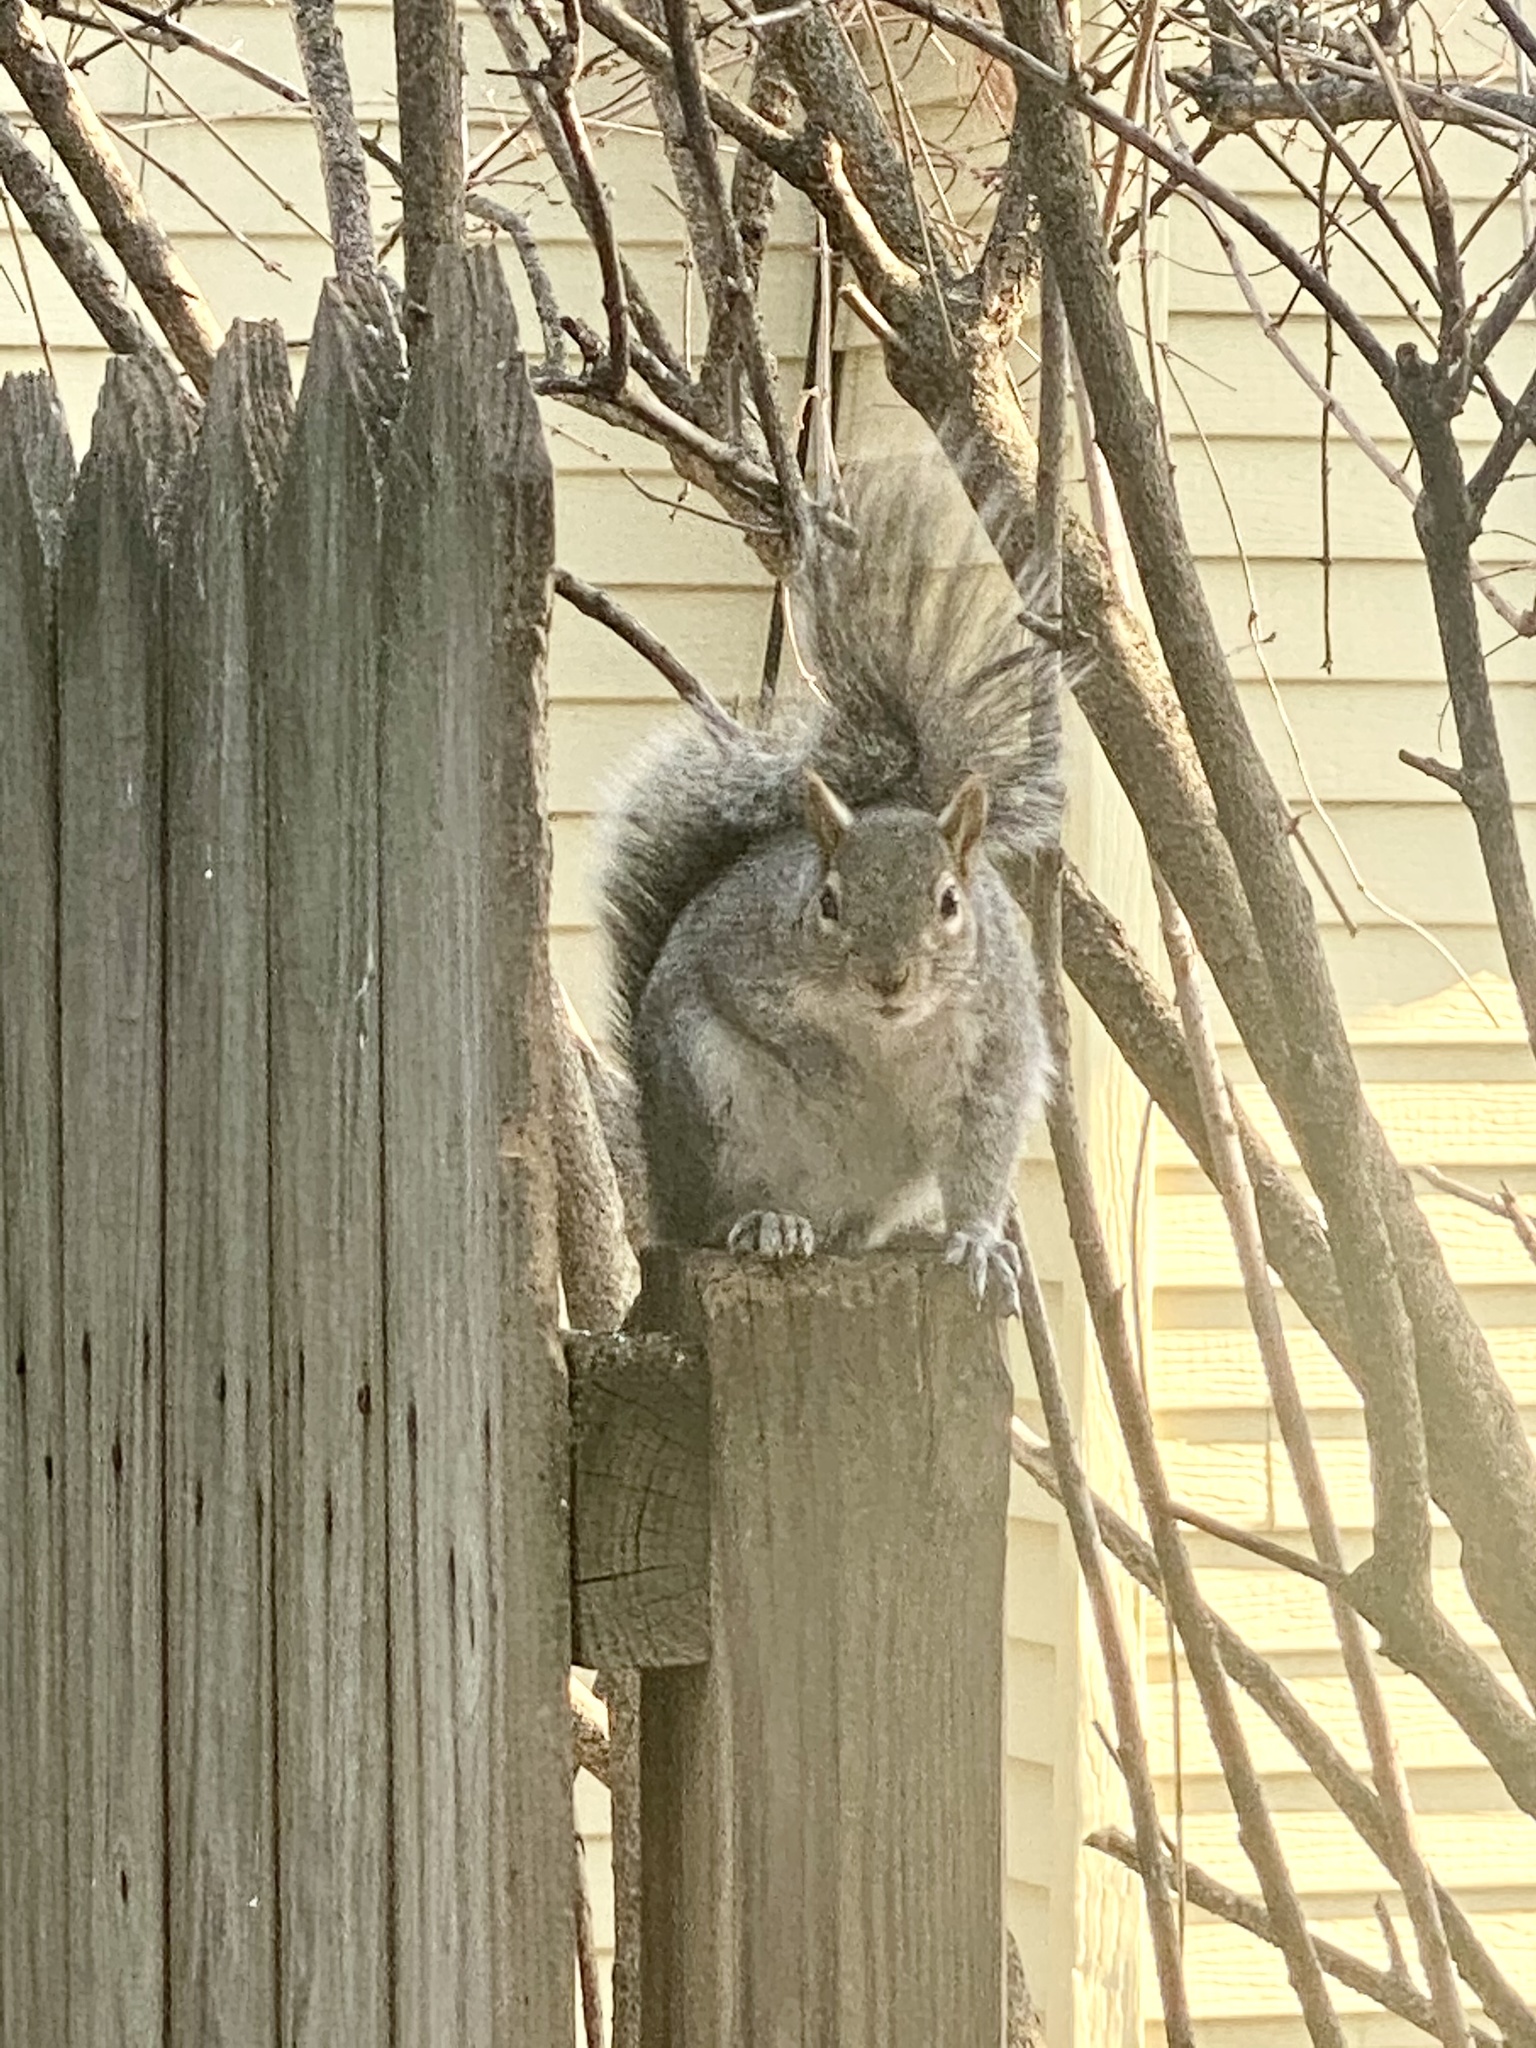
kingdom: Animalia
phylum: Chordata
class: Mammalia
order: Rodentia
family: Sciuridae
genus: Sciurus
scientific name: Sciurus carolinensis
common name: Eastern gray squirrel
